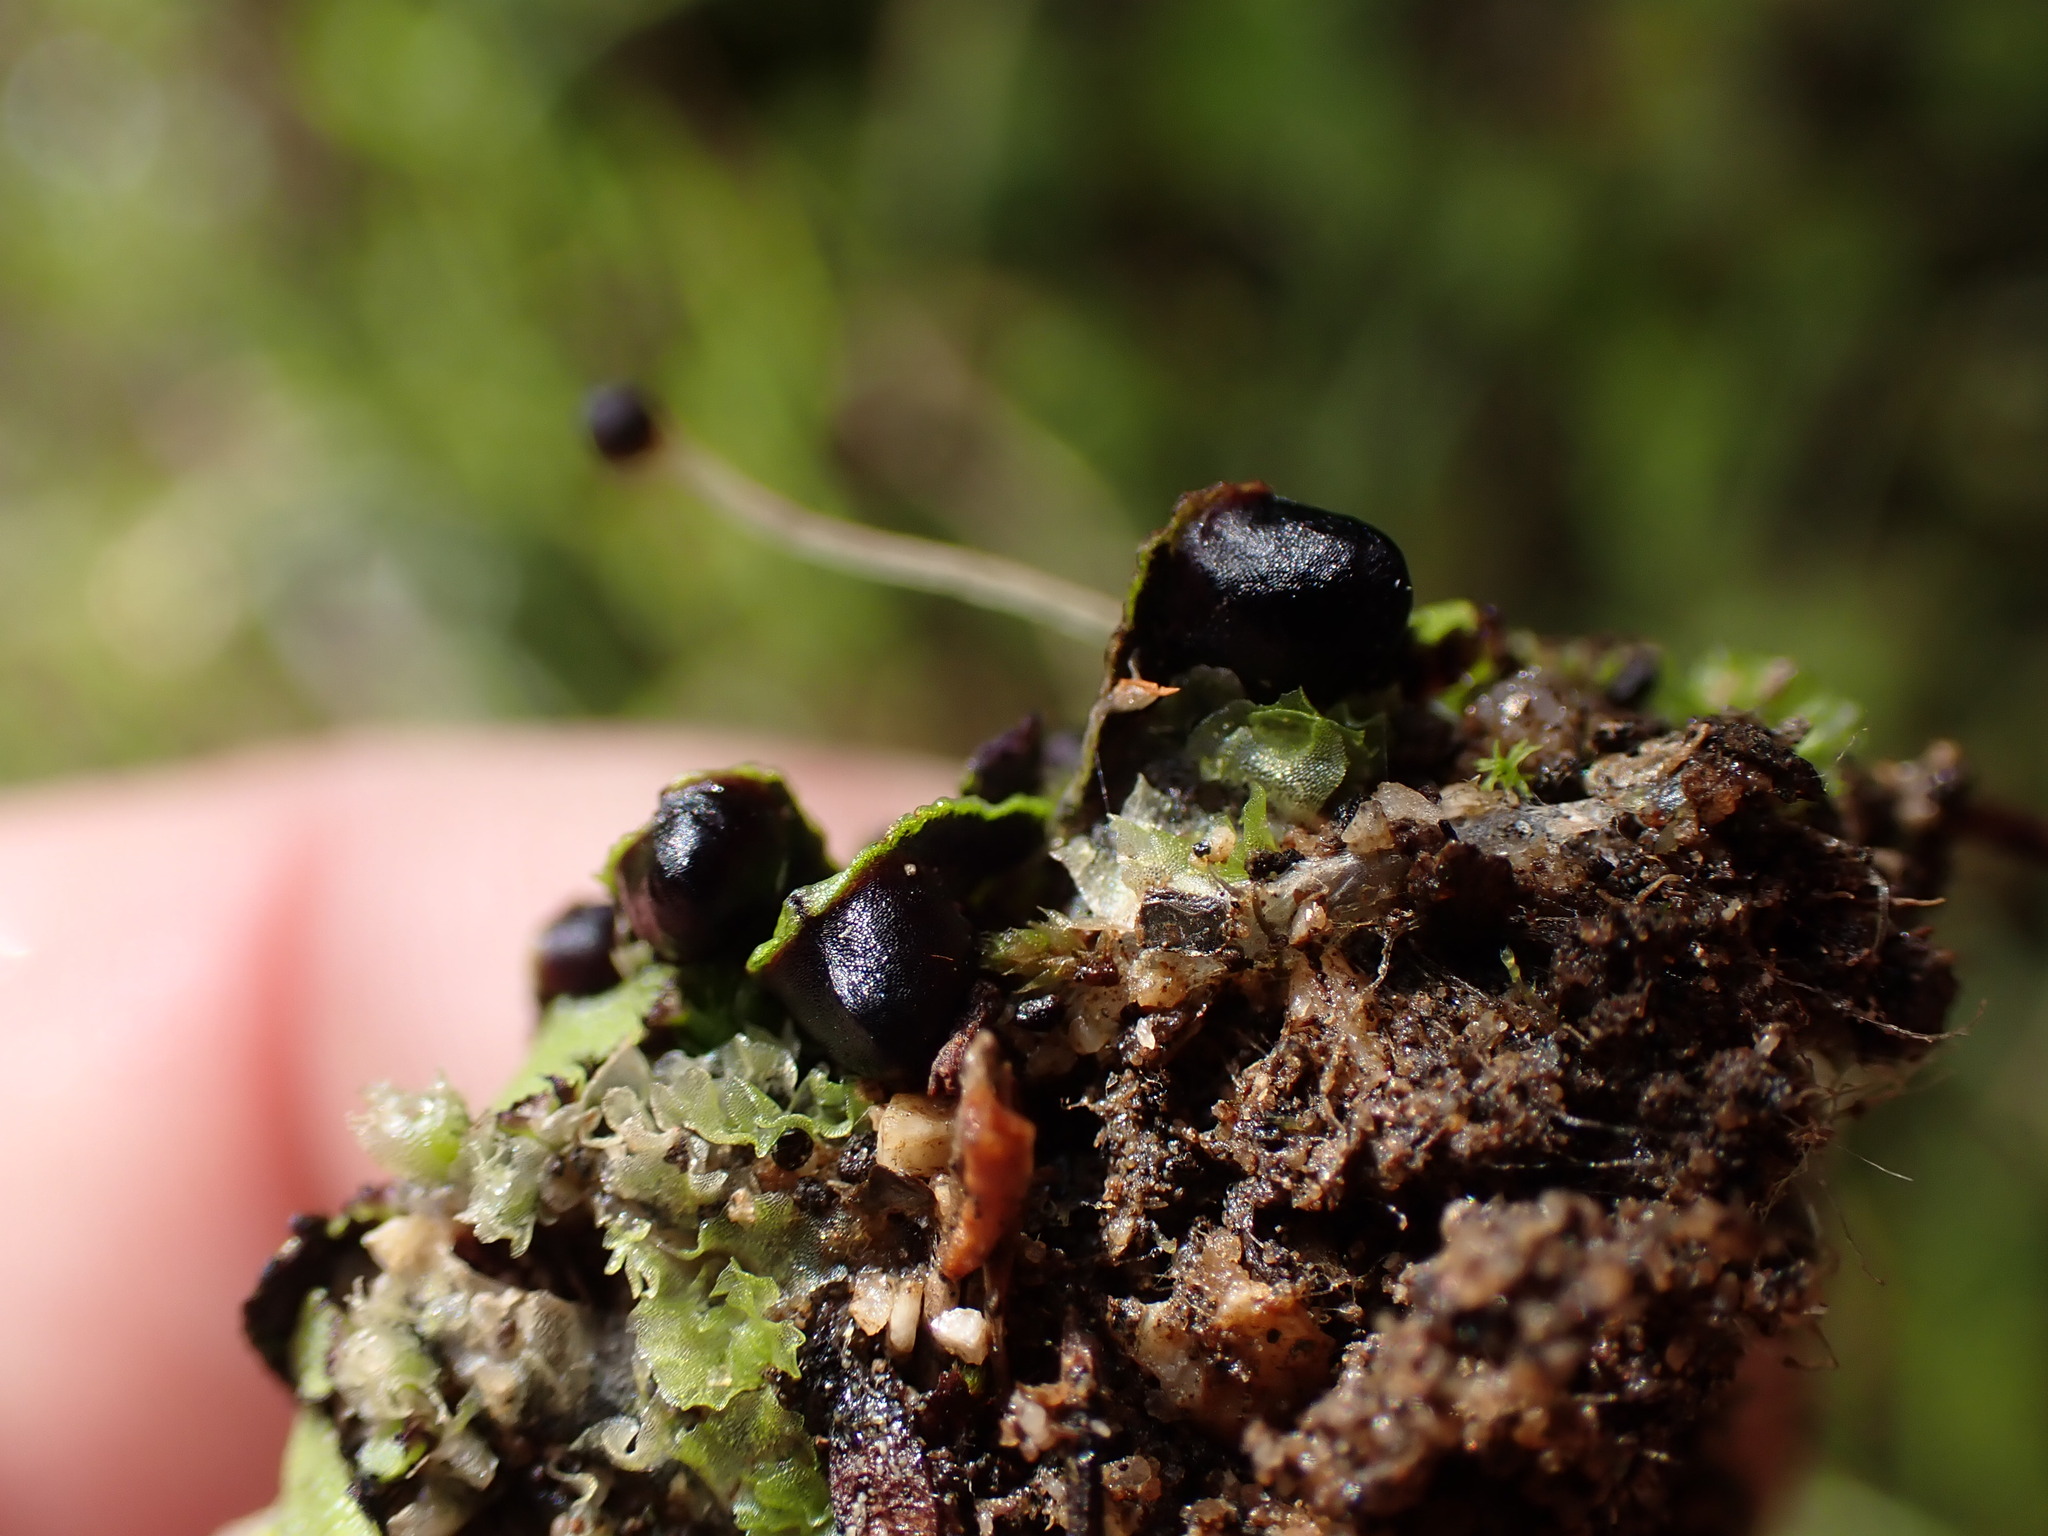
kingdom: Plantae
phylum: Marchantiophyta
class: Marchantiopsida
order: Marchantiales
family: Targioniaceae
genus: Targionia
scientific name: Targionia hypophylla
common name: Orobus-seed liverwort
